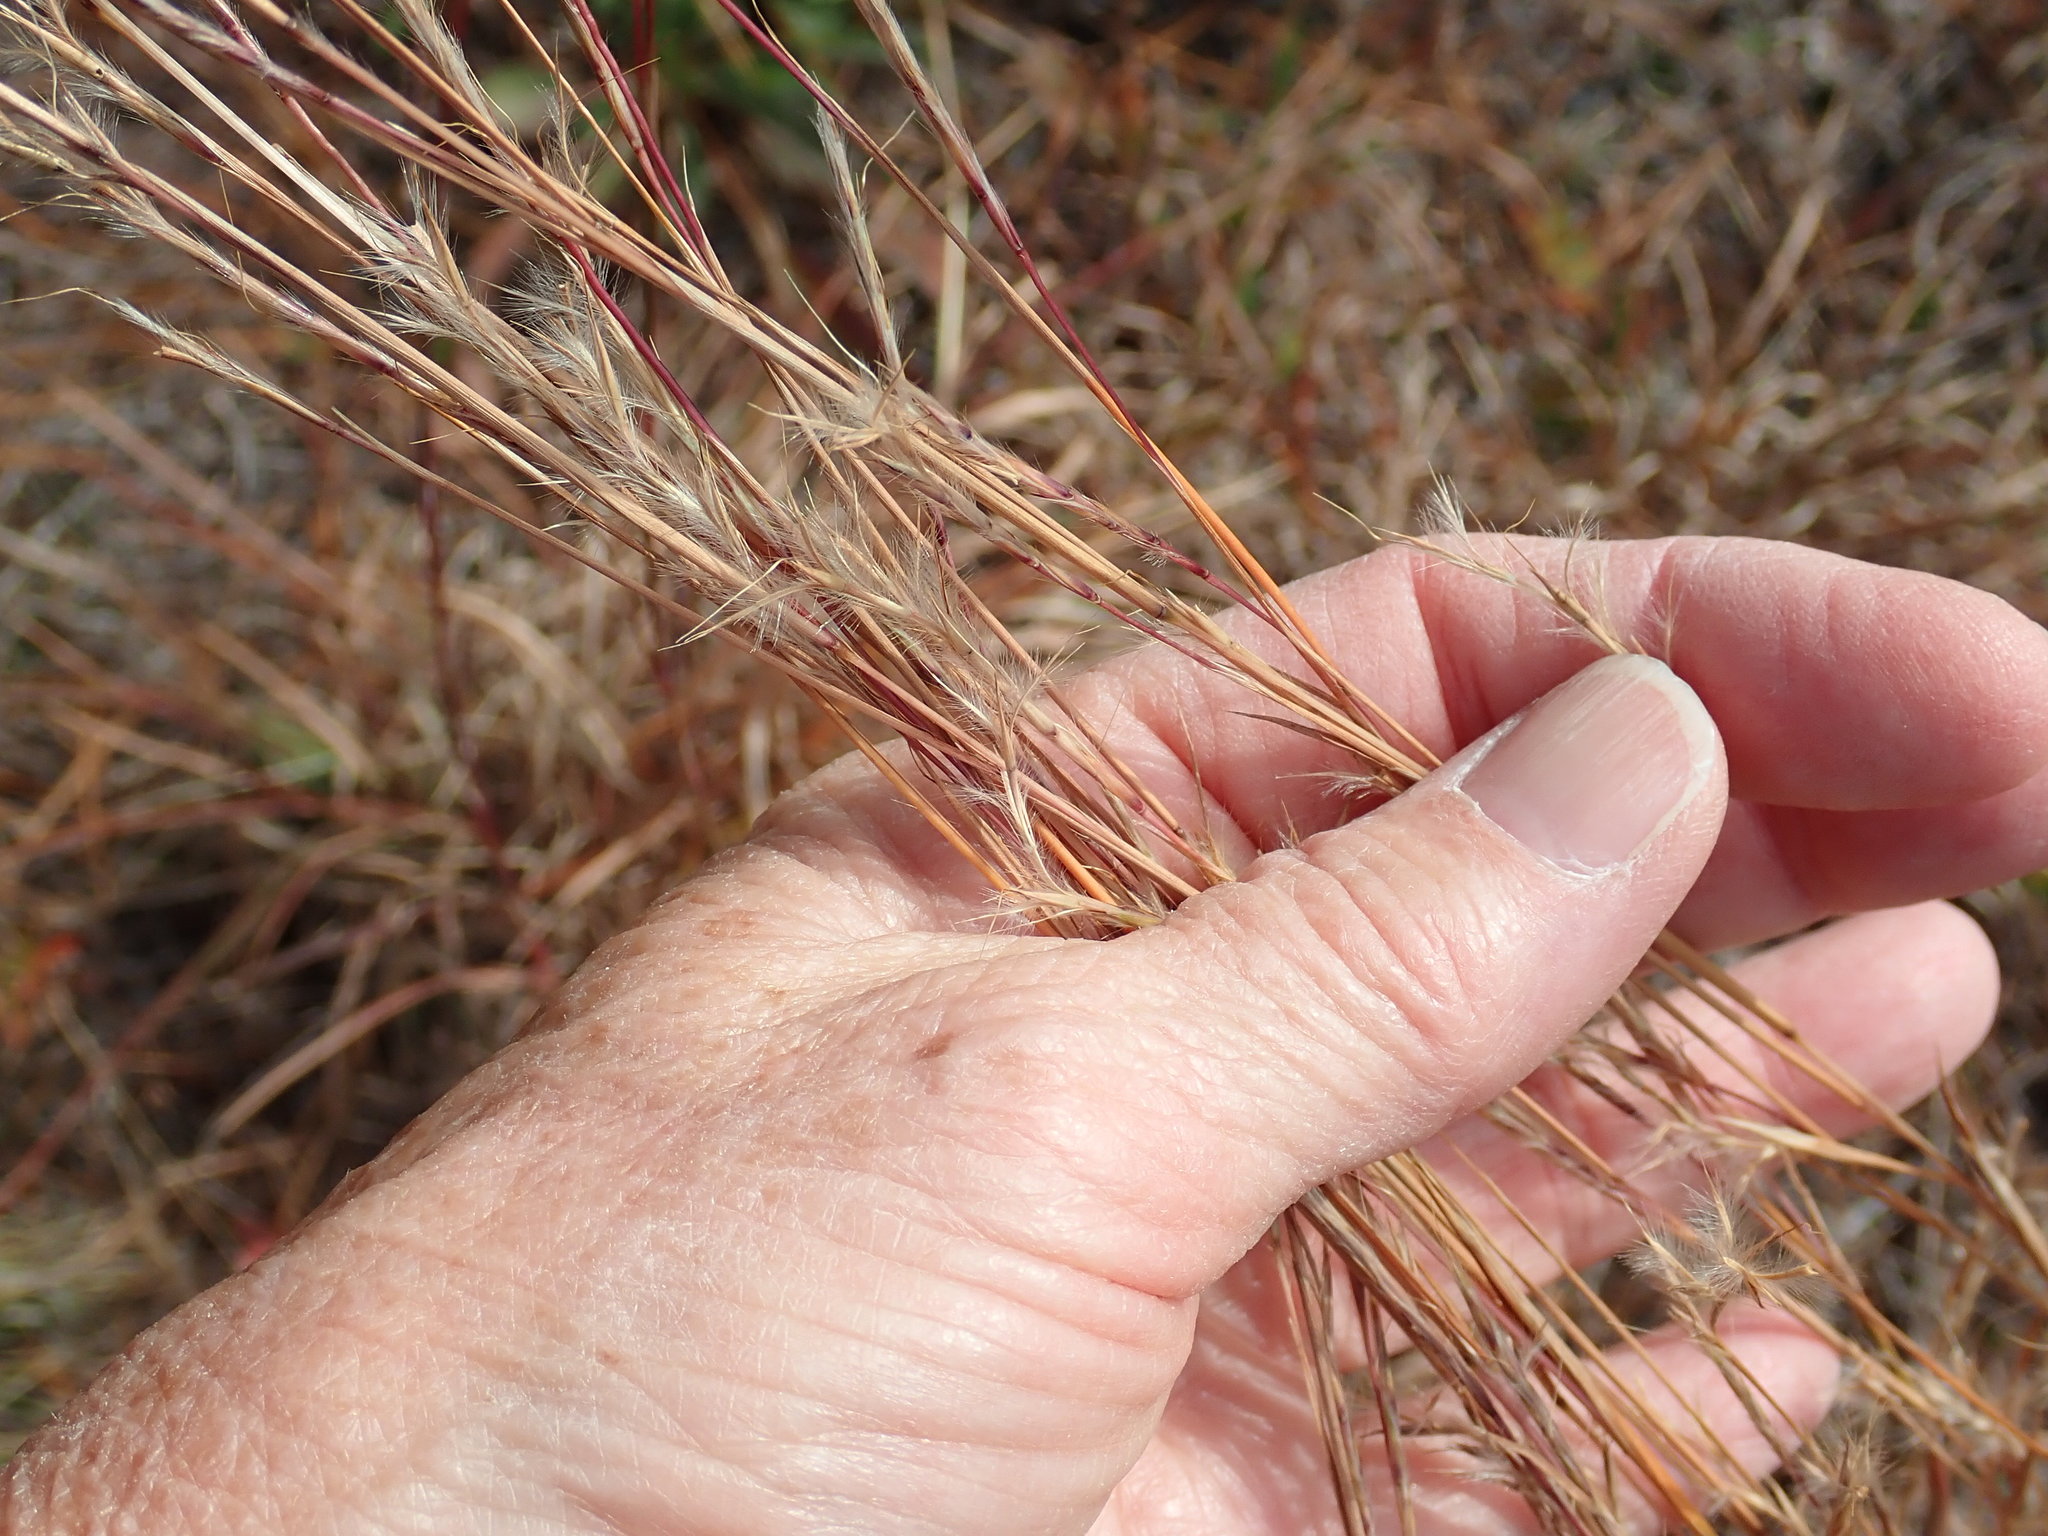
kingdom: Plantae
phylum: Tracheophyta
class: Liliopsida
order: Poales
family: Poaceae
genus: Schizachyrium
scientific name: Schizachyrium scoparium
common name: Little bluestem
